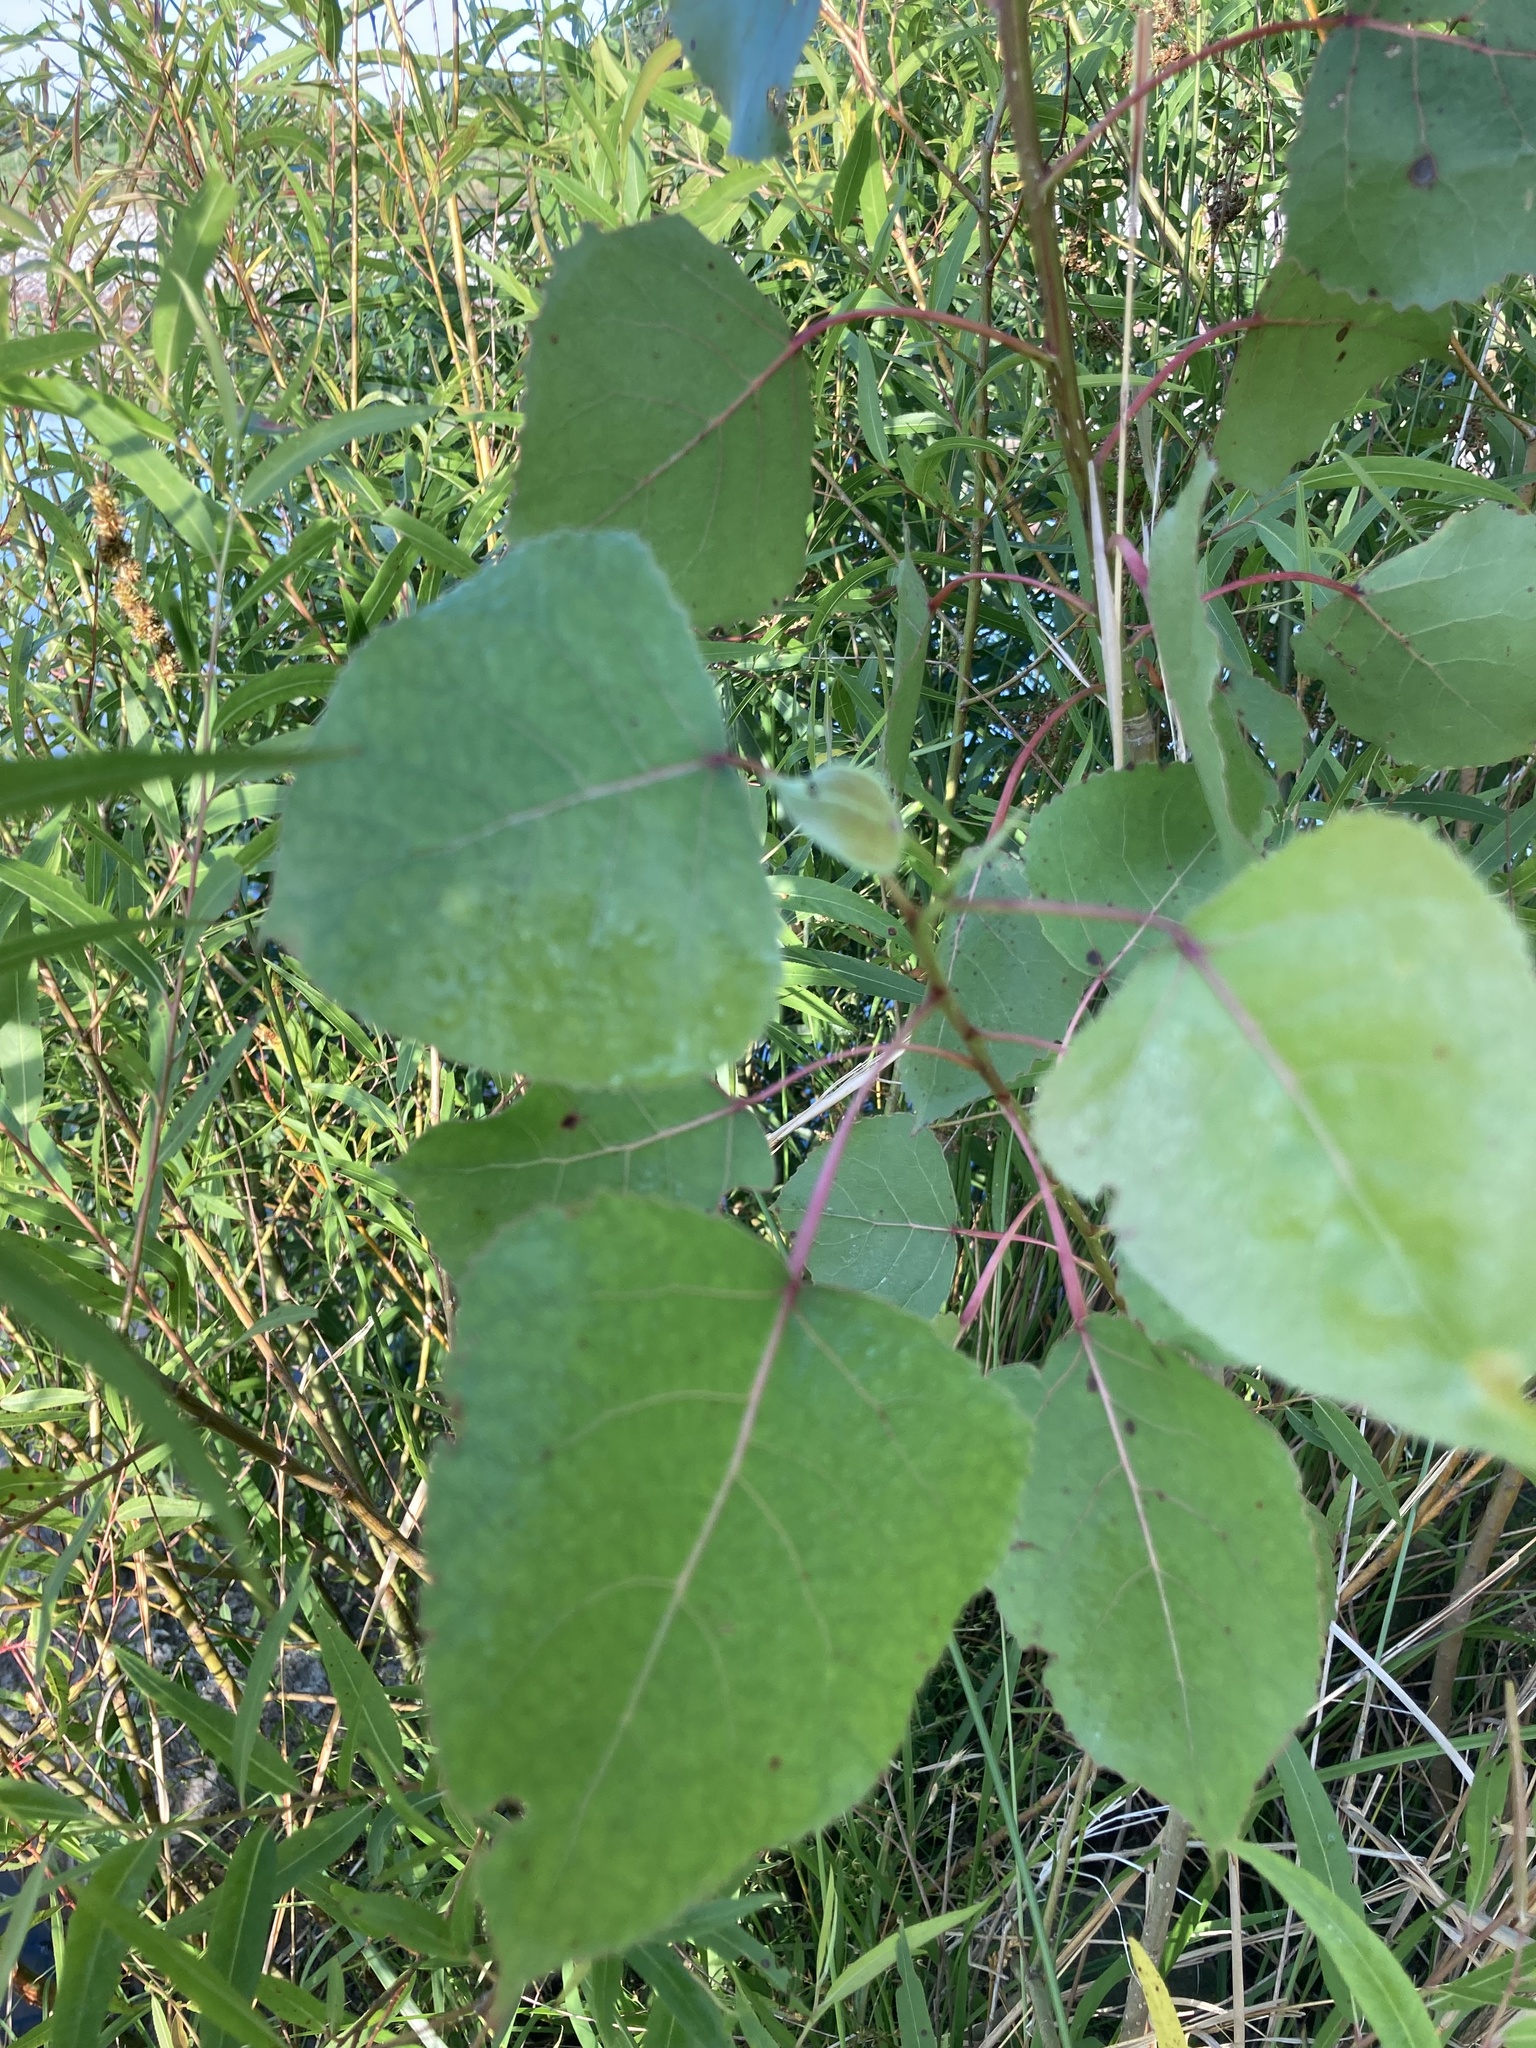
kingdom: Plantae
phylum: Tracheophyta
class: Magnoliopsida
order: Malpighiales
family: Salicaceae
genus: Populus
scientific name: Populus deltoides
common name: Eastern cottonwood
